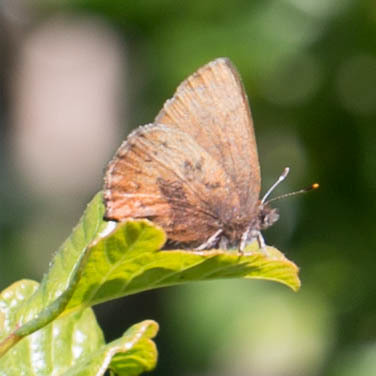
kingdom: Animalia
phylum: Arthropoda
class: Insecta
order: Lepidoptera
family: Lycaenidae
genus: Incisalia
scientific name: Incisalia irioides
